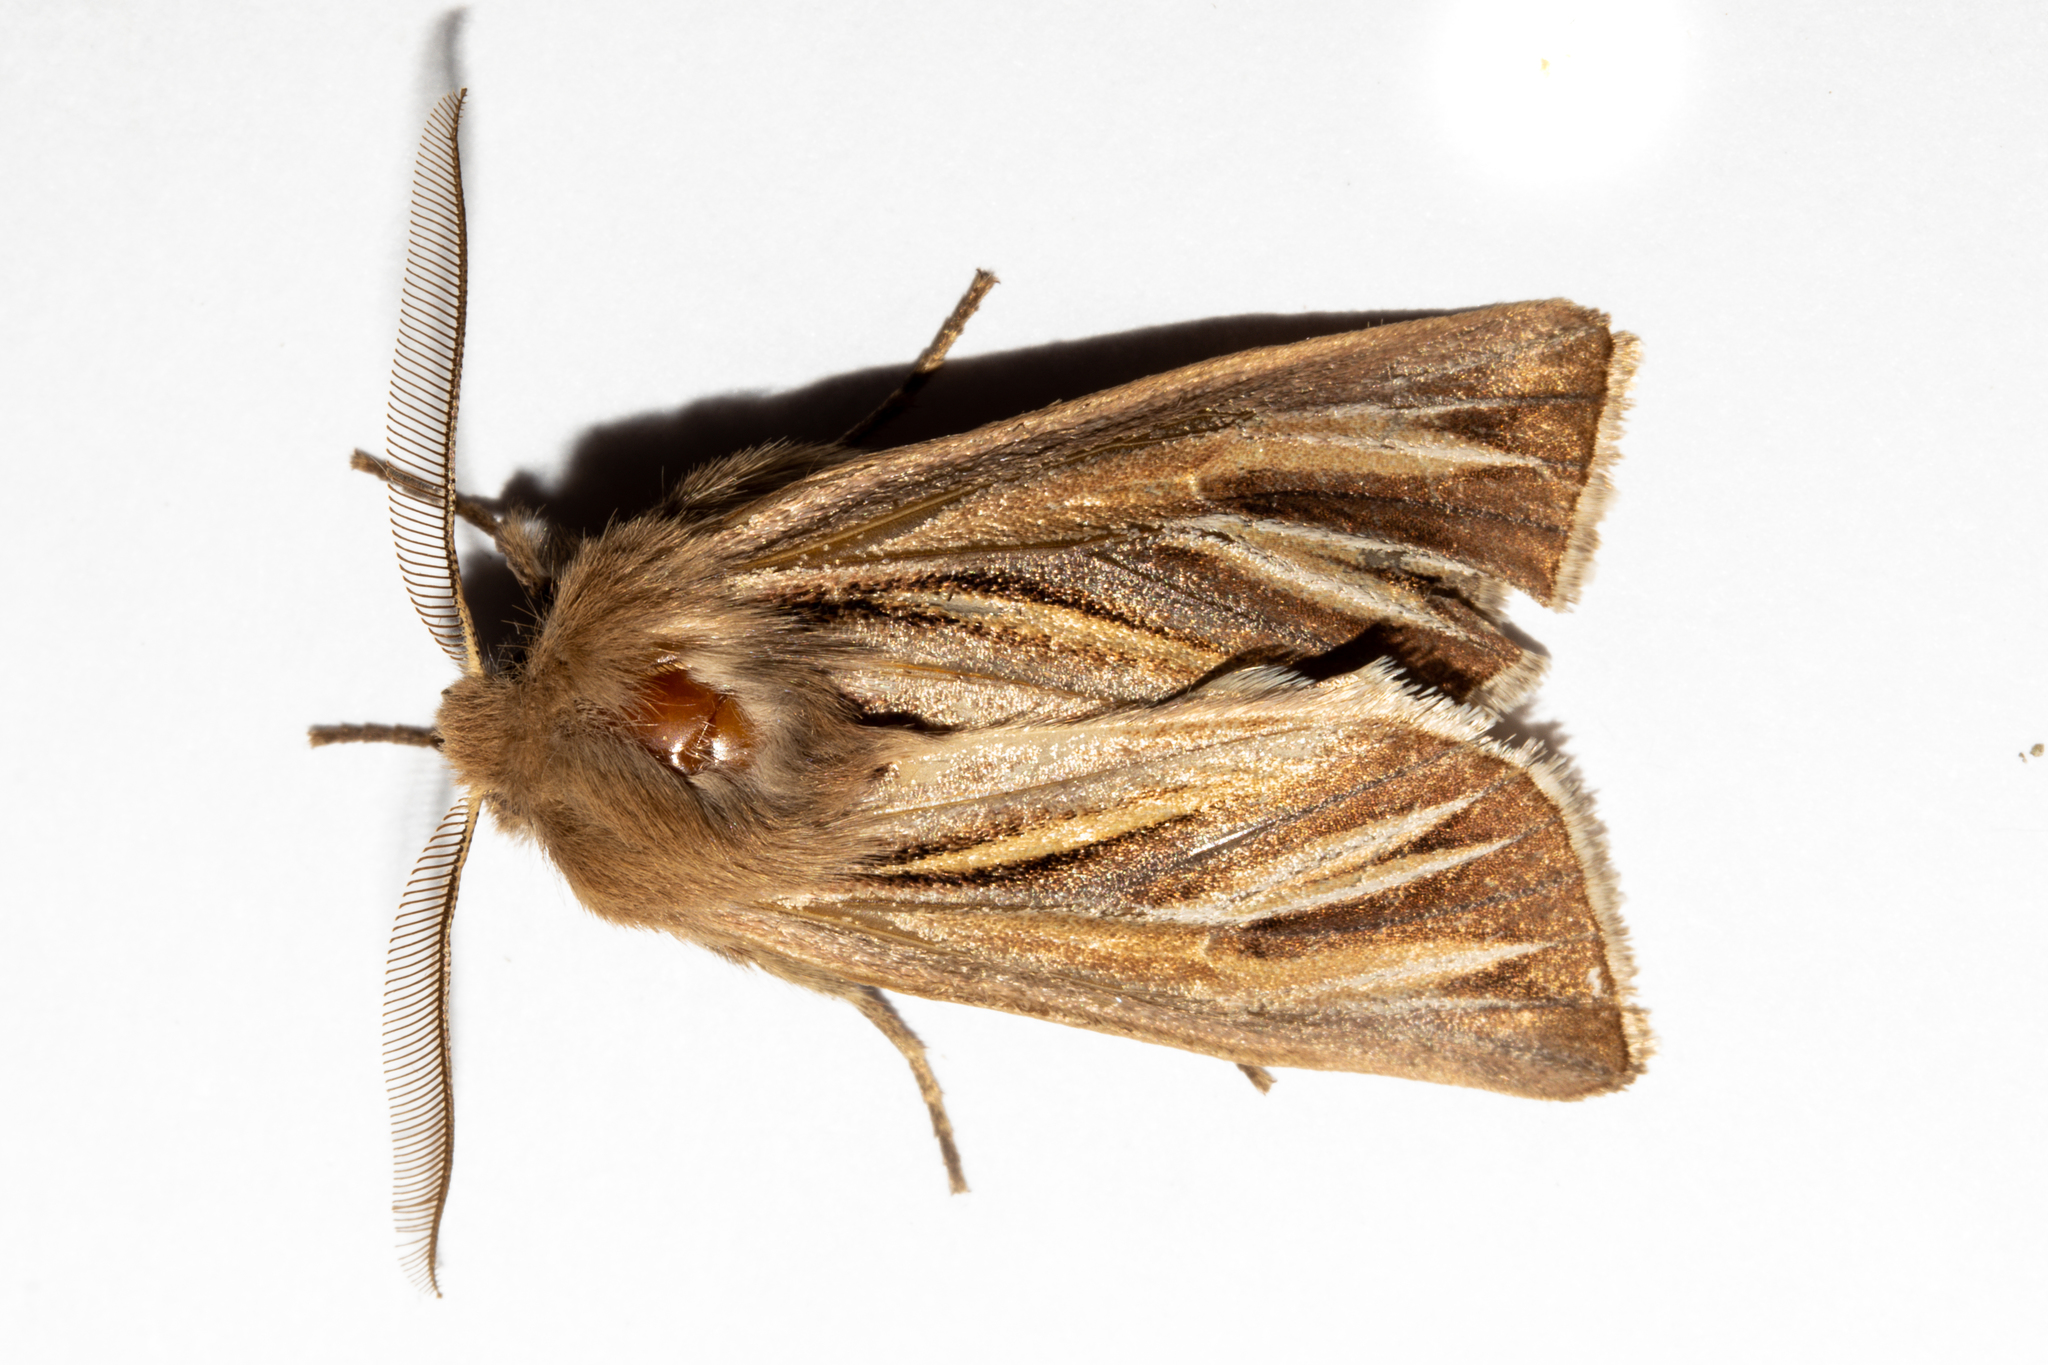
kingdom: Animalia
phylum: Arthropoda
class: Insecta
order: Lepidoptera
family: Noctuidae
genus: Ichneutica
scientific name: Ichneutica caraunias
